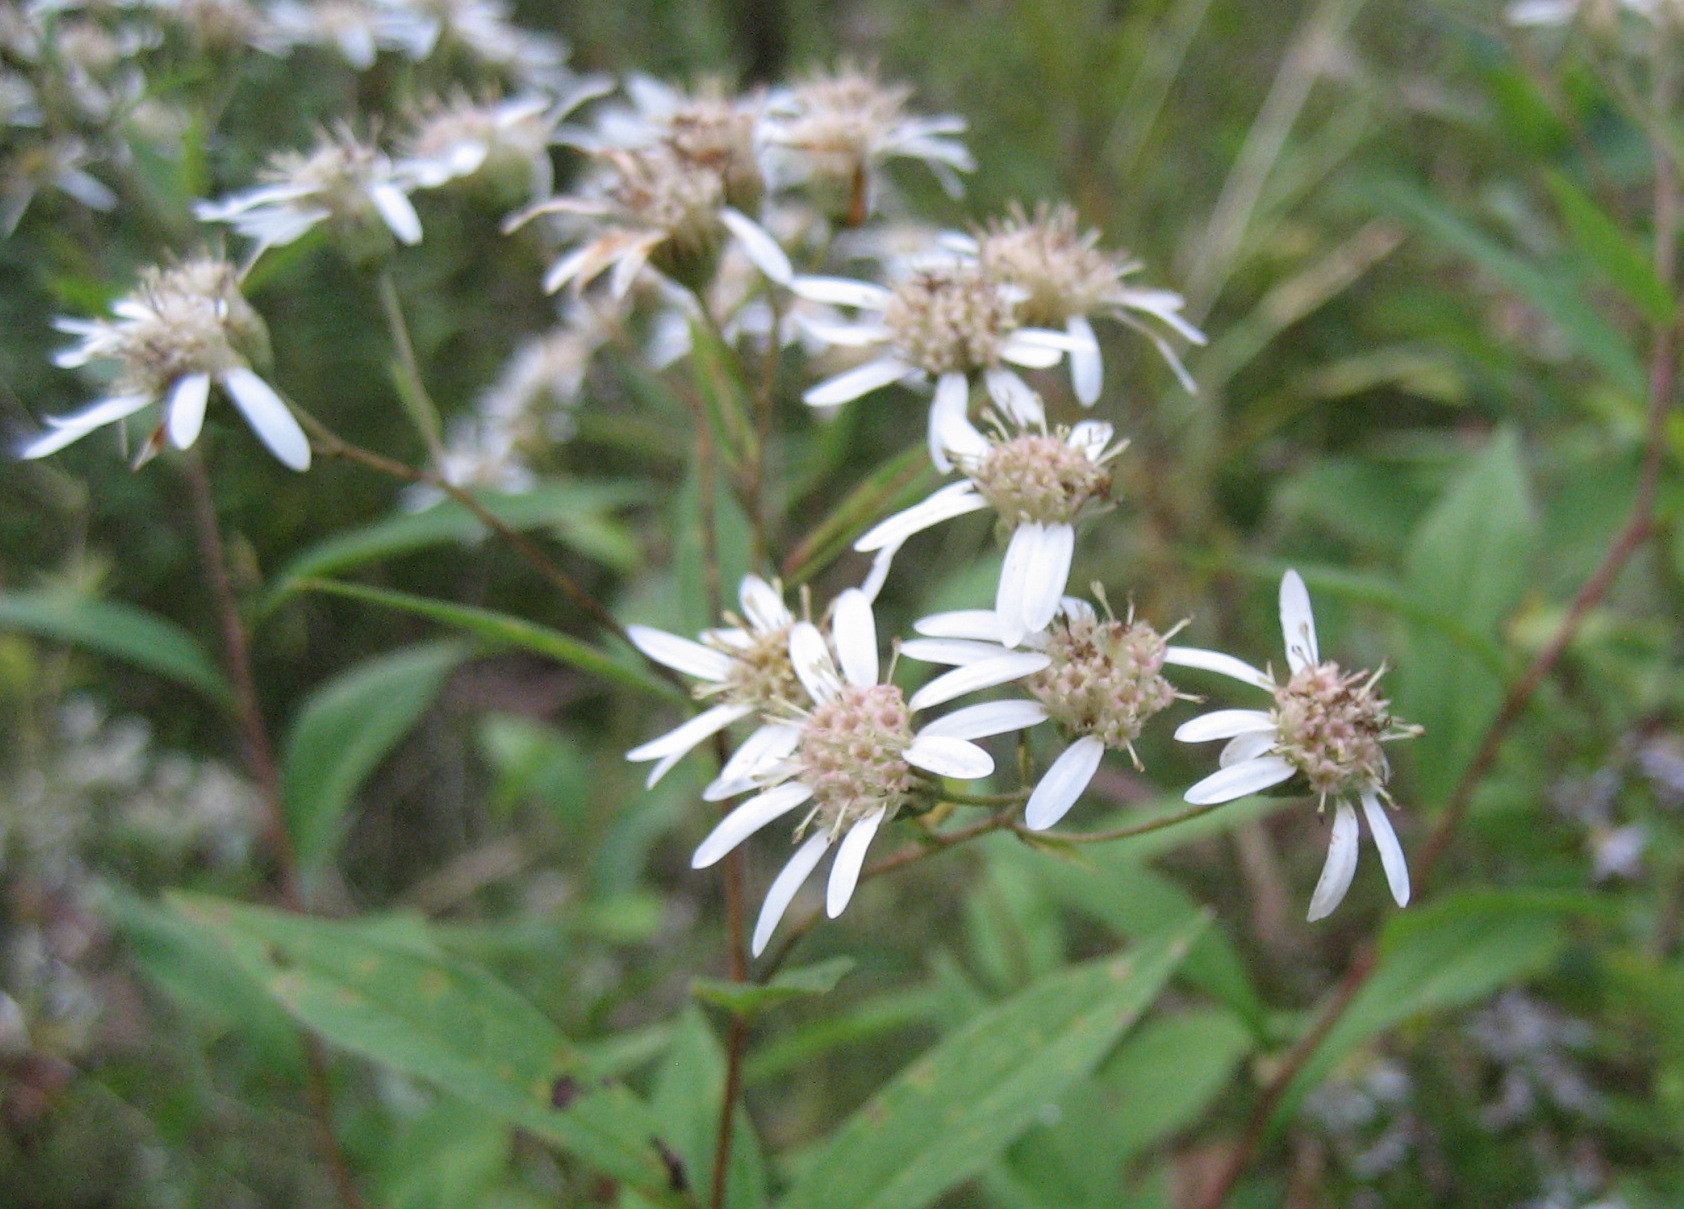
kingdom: Plantae
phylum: Tracheophyta
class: Magnoliopsida
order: Asterales
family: Asteraceae
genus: Doellingeria
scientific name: Doellingeria umbellata
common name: Flat-top white aster
